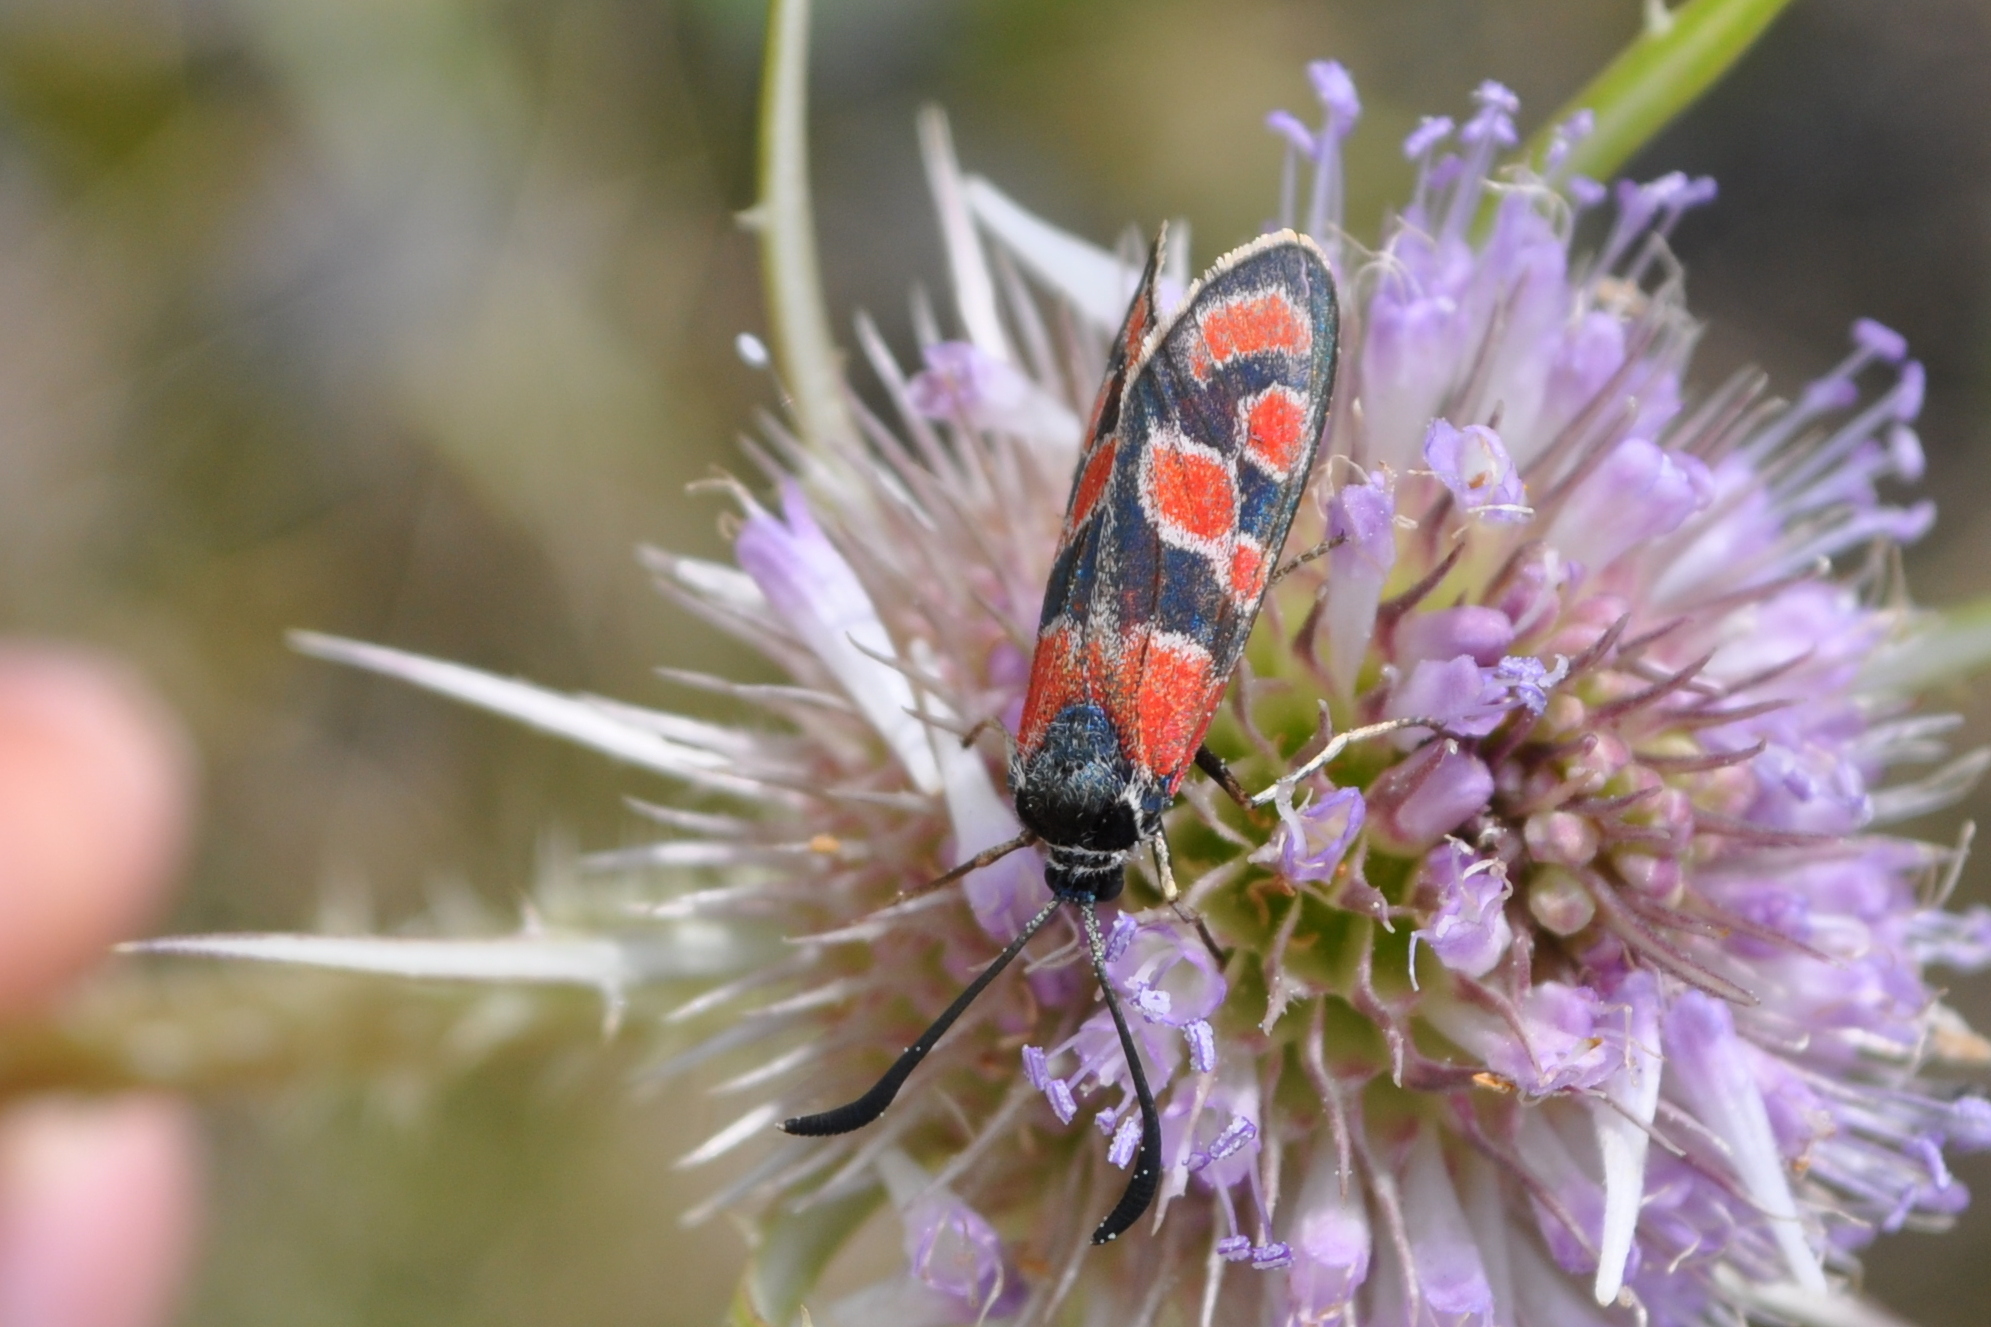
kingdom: Animalia
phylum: Arthropoda
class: Insecta
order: Lepidoptera
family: Zygaenidae
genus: Zygaena
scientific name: Zygaena carniolica
